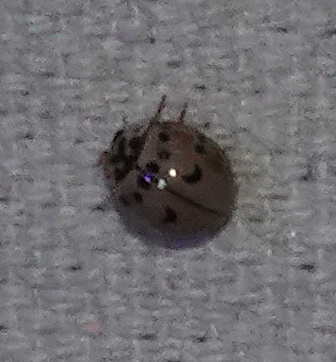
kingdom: Animalia
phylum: Arthropoda
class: Insecta
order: Coleoptera
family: Coccinellidae
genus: Olla
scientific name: Olla v-nigrum
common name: Ashy gray lady beetle
